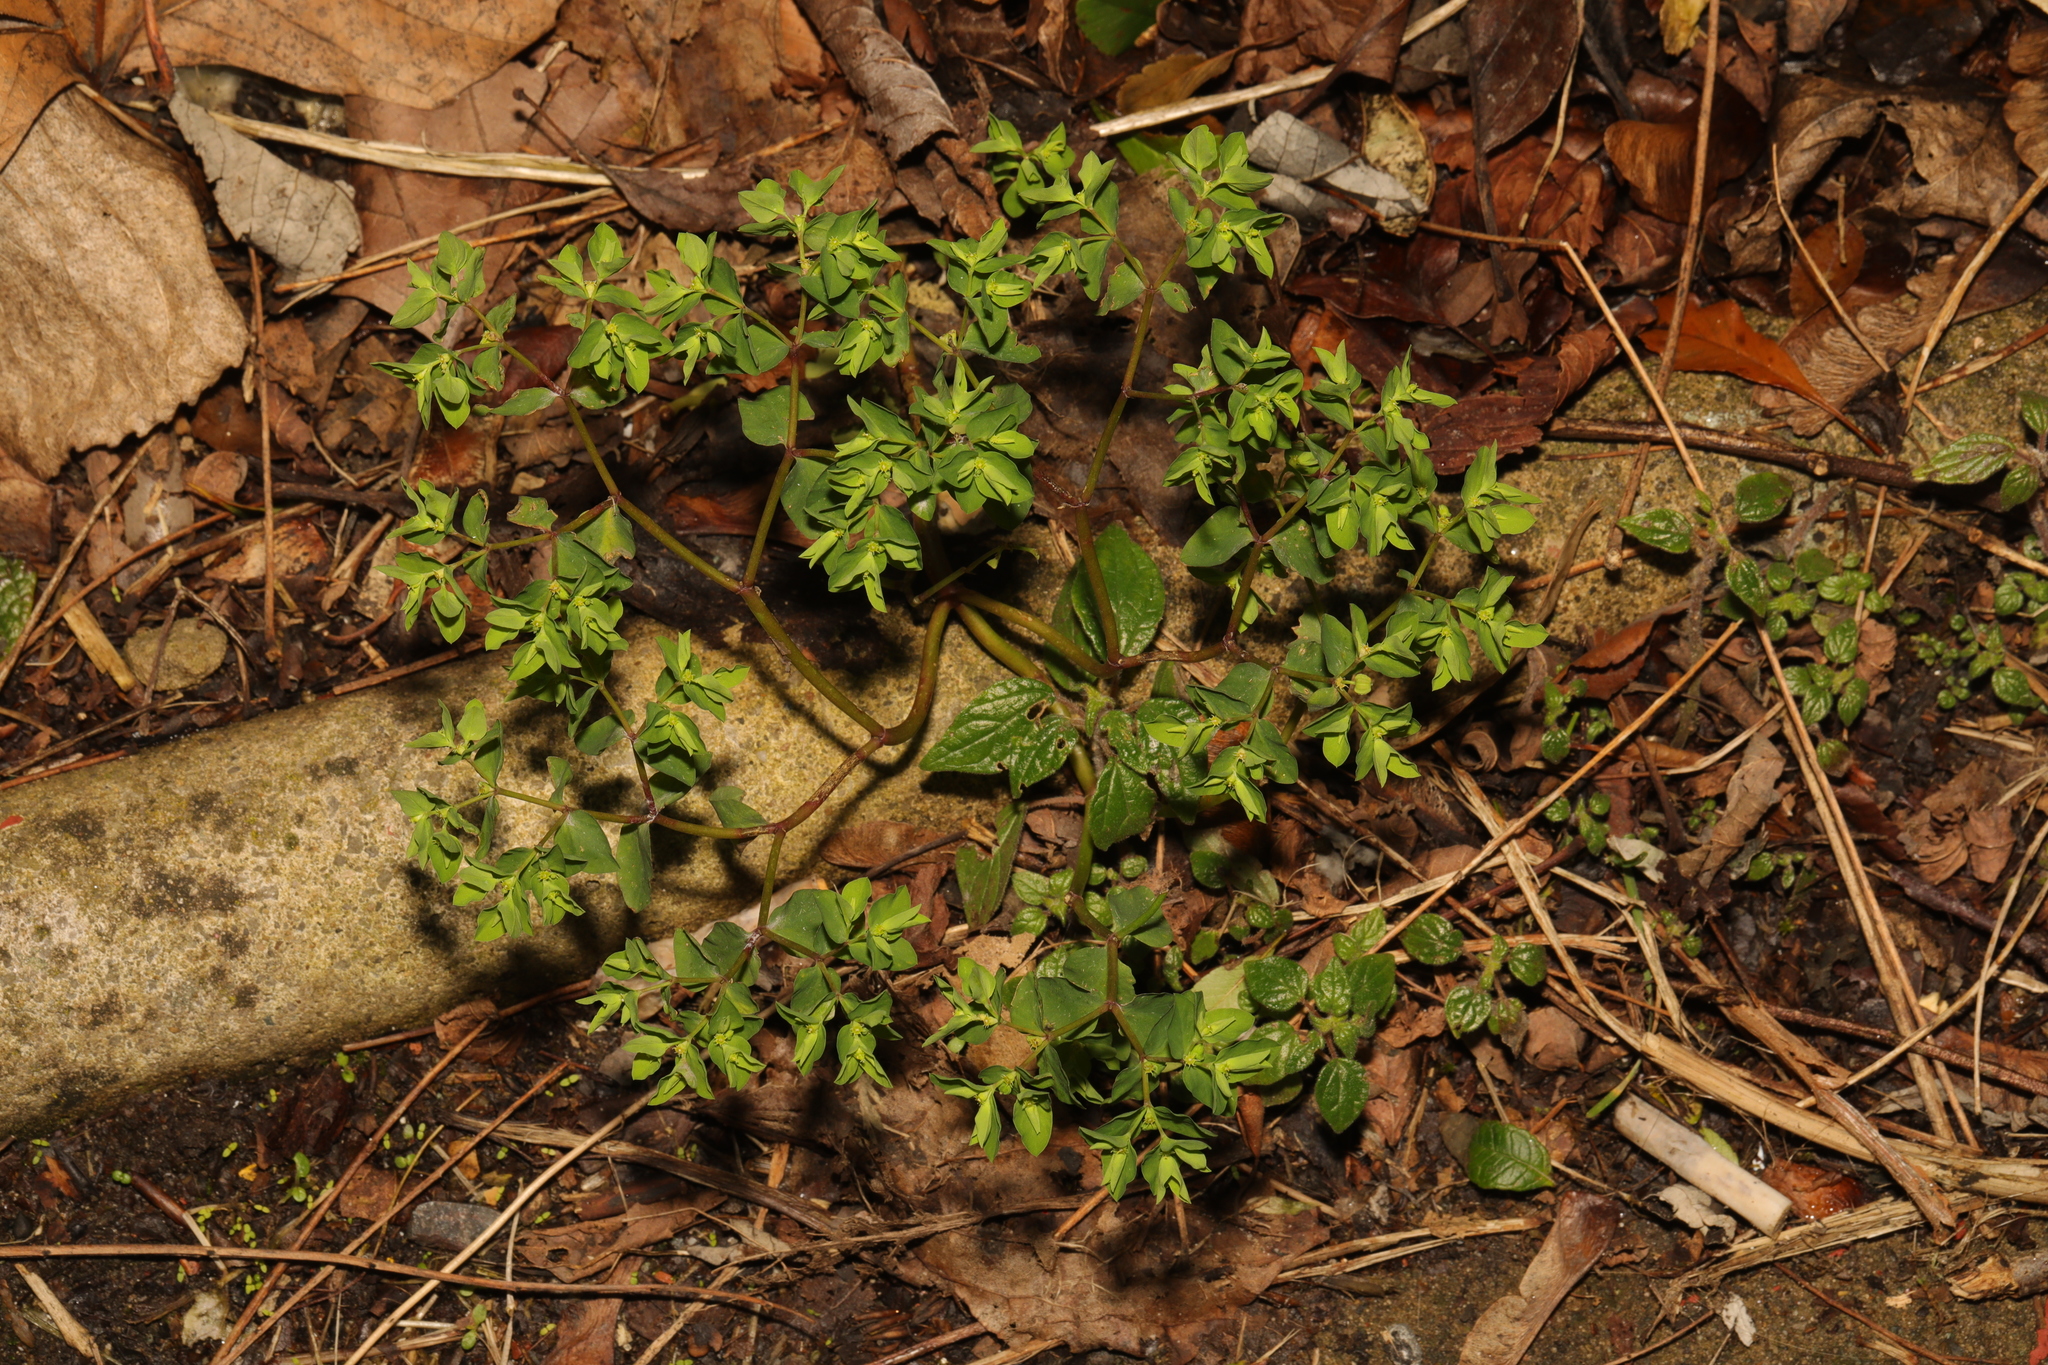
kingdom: Plantae
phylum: Tracheophyta
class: Magnoliopsida
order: Malpighiales
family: Euphorbiaceae
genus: Euphorbia
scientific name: Euphorbia peplus
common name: Petty spurge
